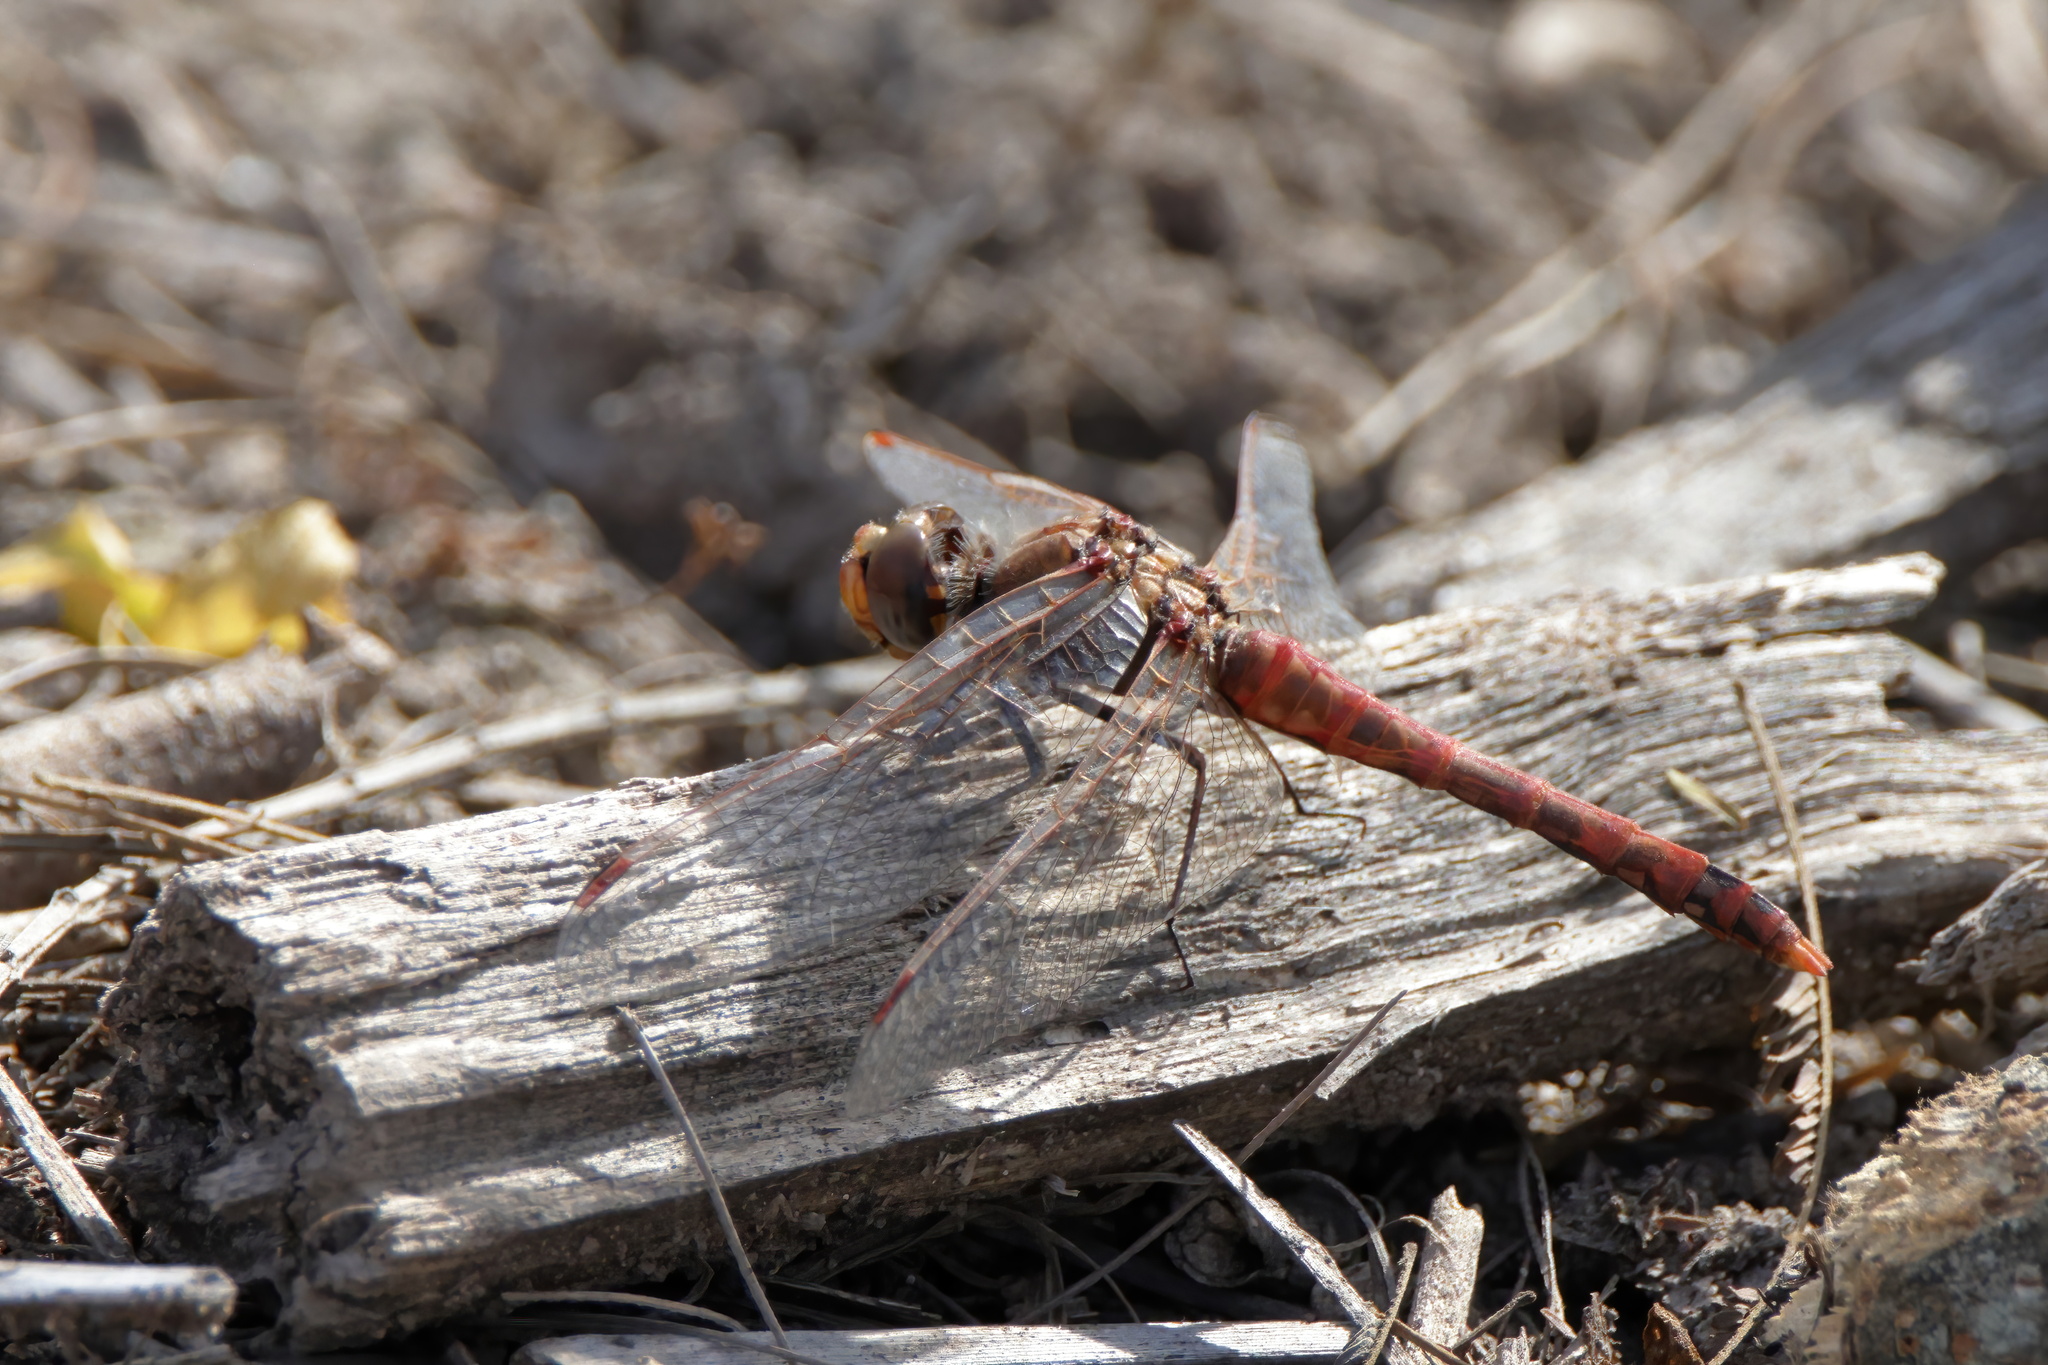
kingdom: Animalia
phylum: Arthropoda
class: Insecta
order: Odonata
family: Libellulidae
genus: Sympetrum
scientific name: Sympetrum corruptum
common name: Variegated meadowhawk
